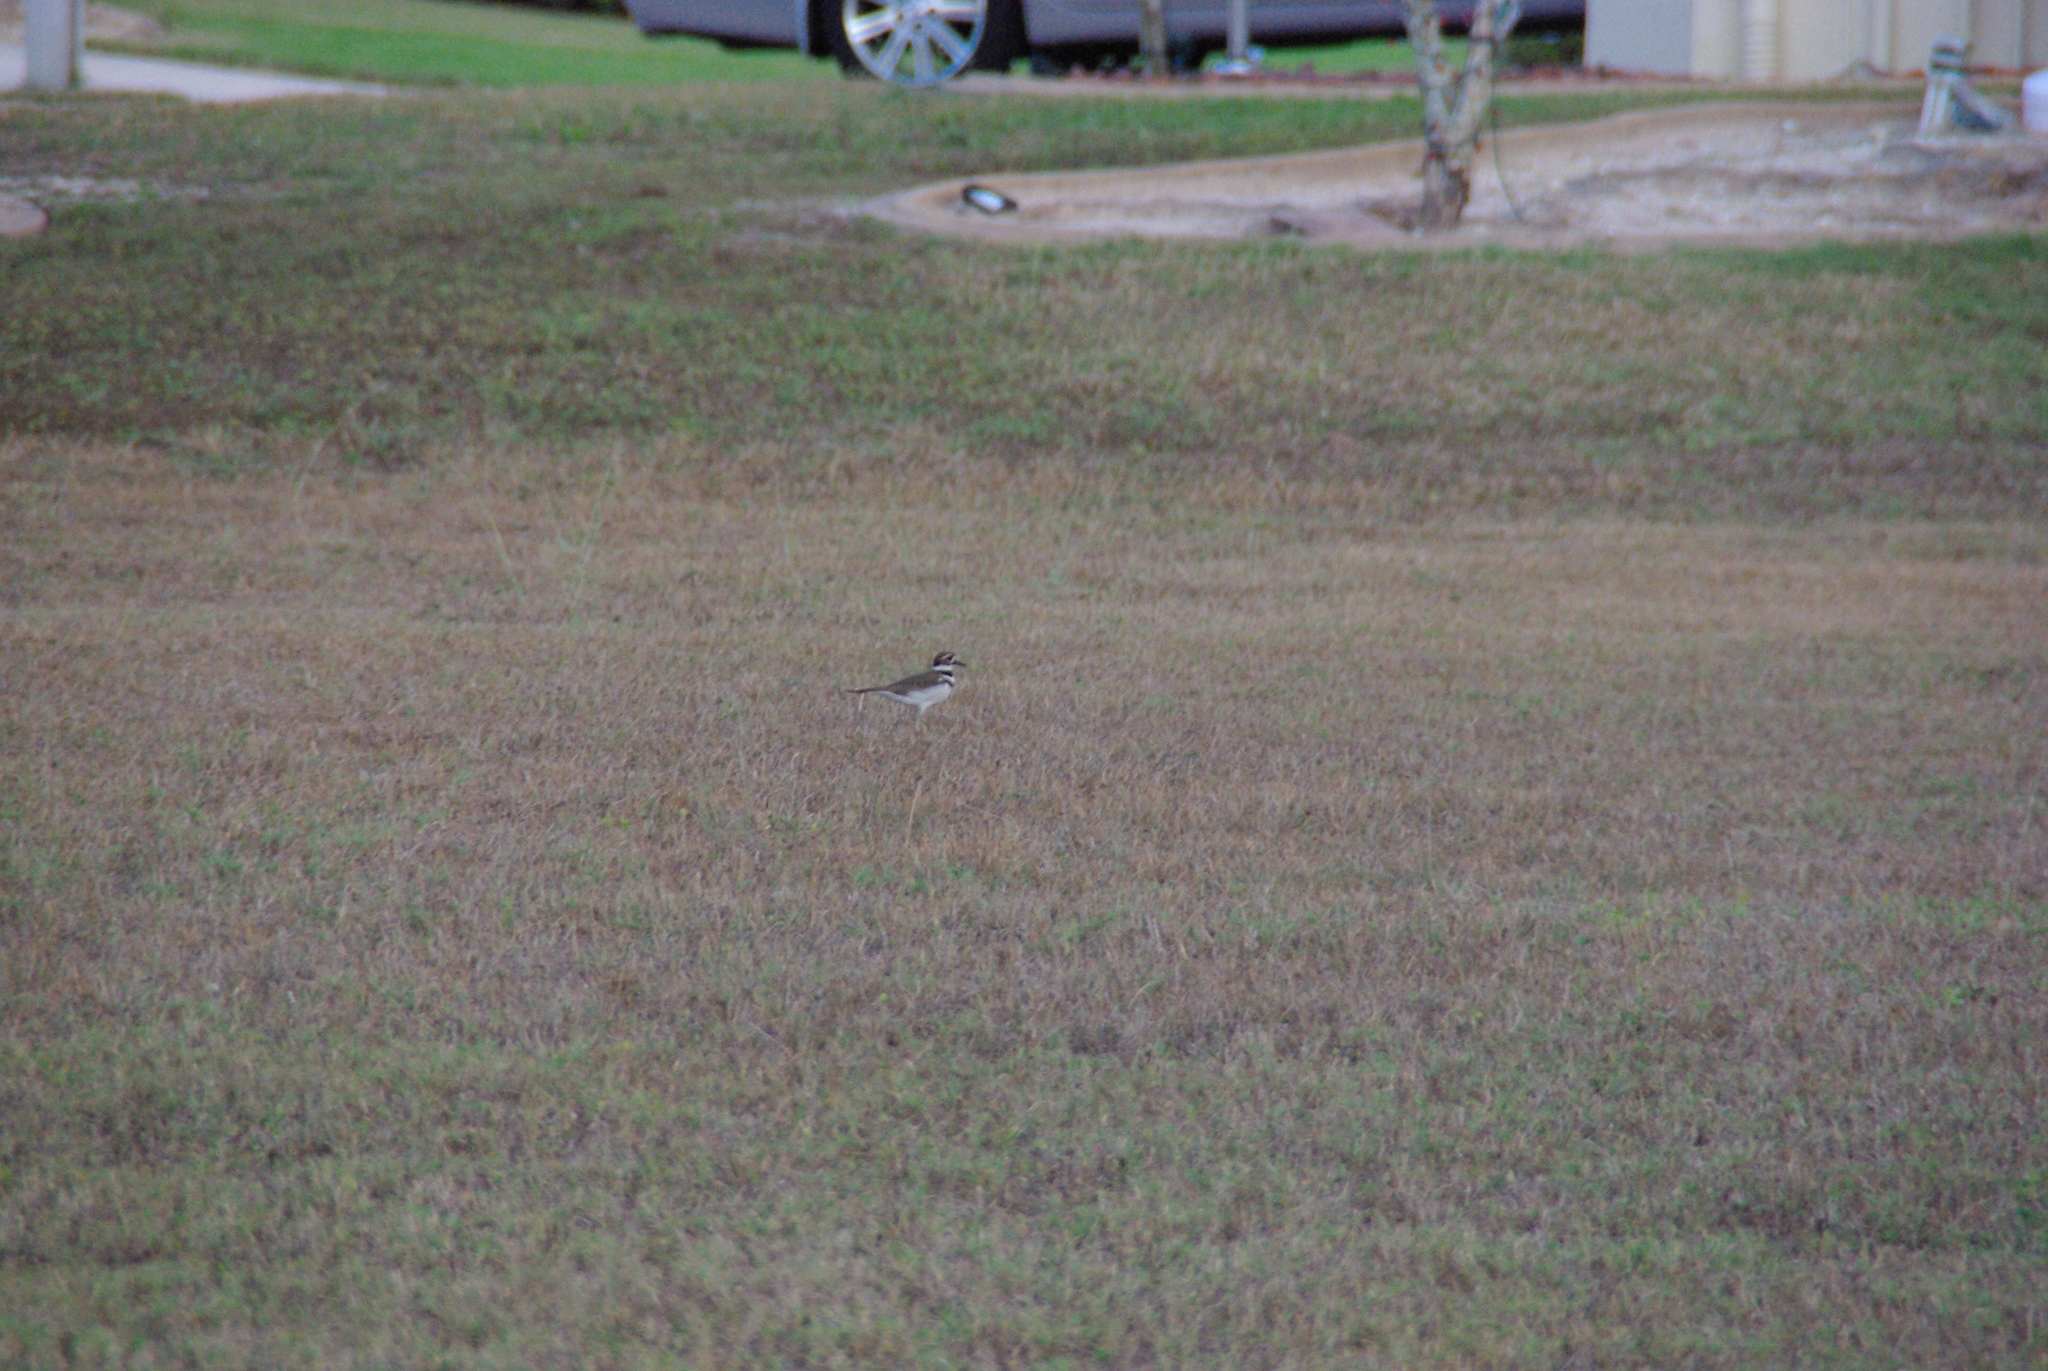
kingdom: Animalia
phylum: Chordata
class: Aves
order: Charadriiformes
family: Charadriidae
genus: Charadrius
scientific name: Charadrius vociferus
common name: Killdeer
